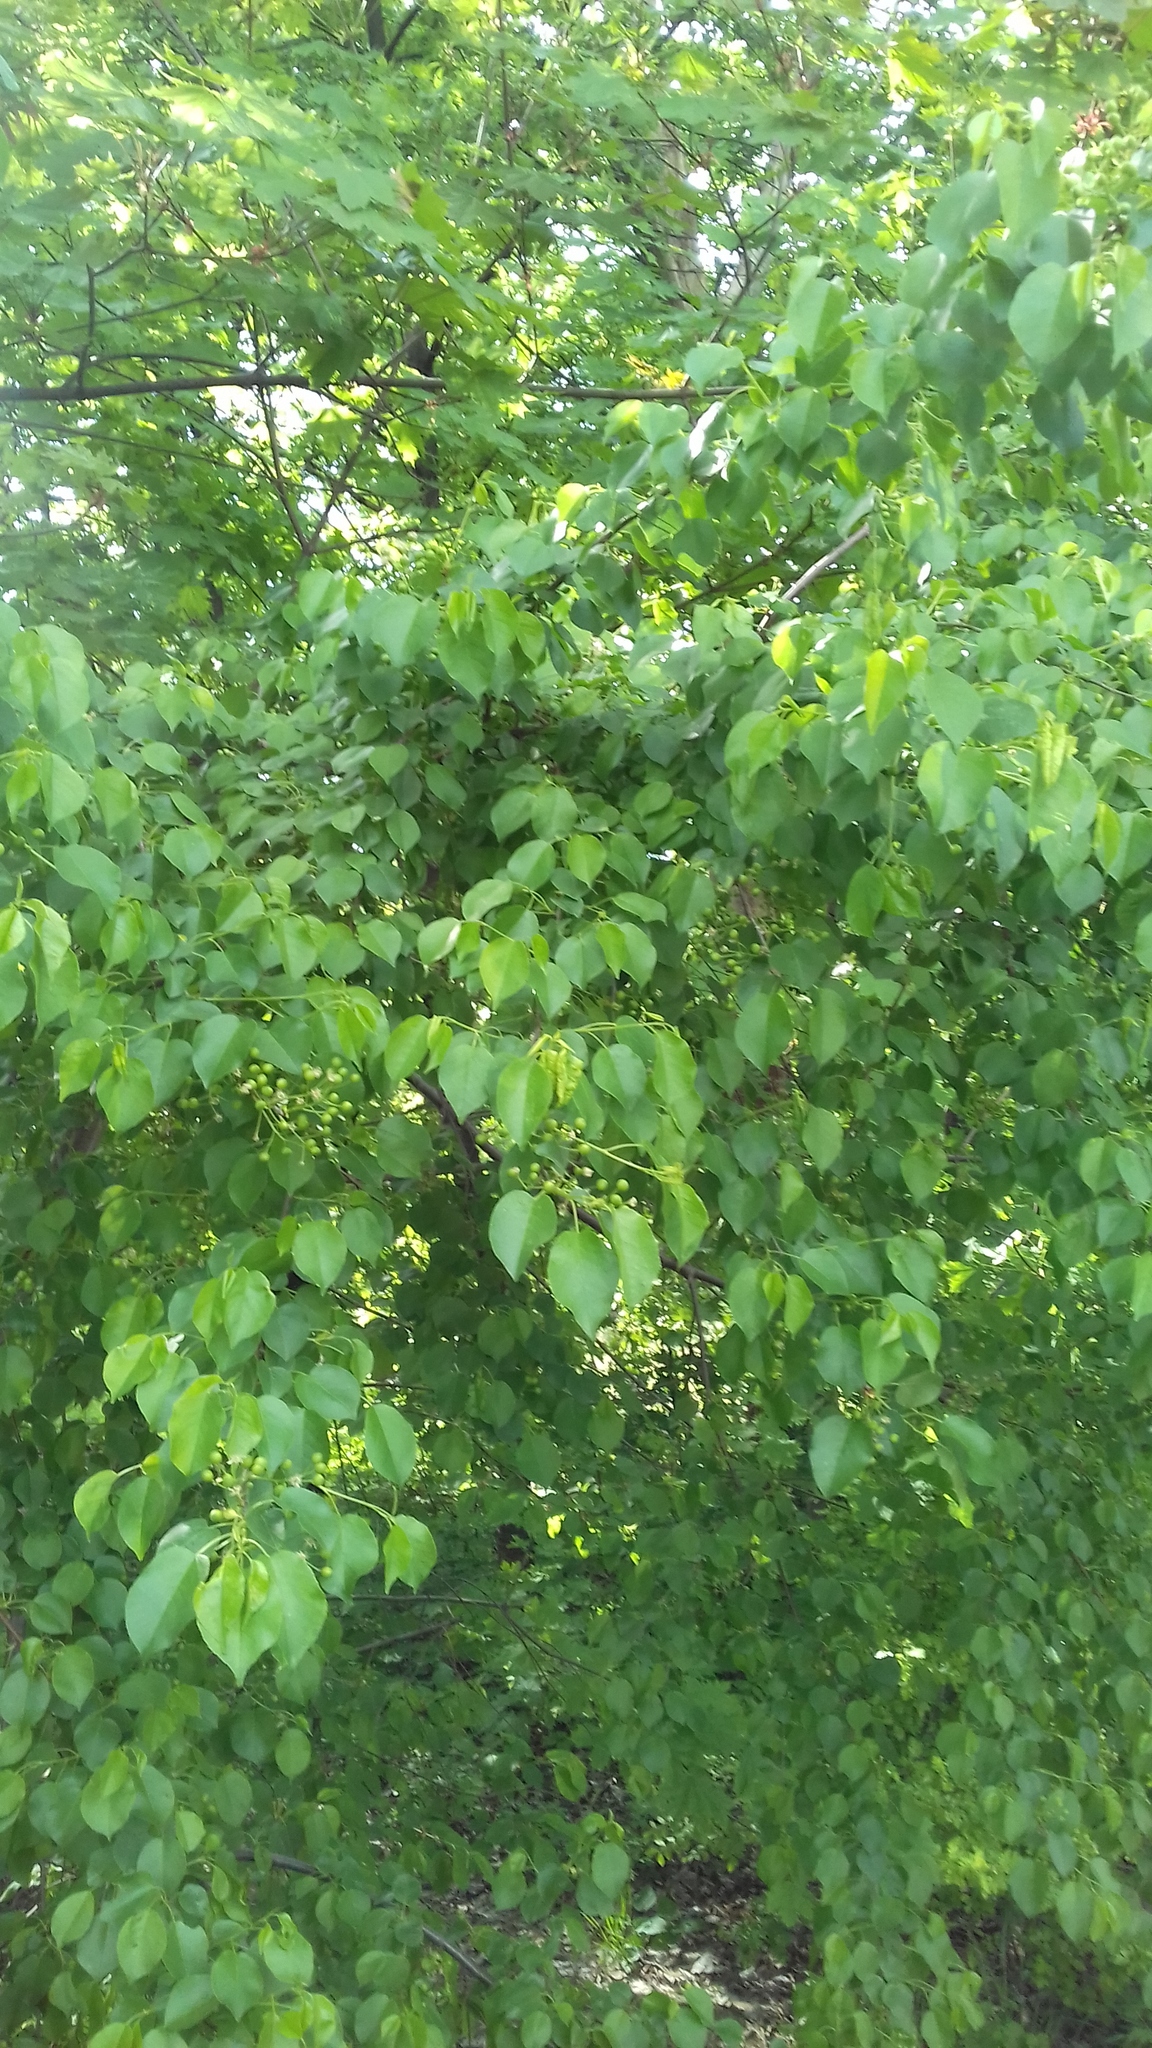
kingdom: Plantae
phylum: Tracheophyta
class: Magnoliopsida
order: Rosales
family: Rosaceae
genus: Prunus
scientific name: Prunus padus
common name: Bird cherry
